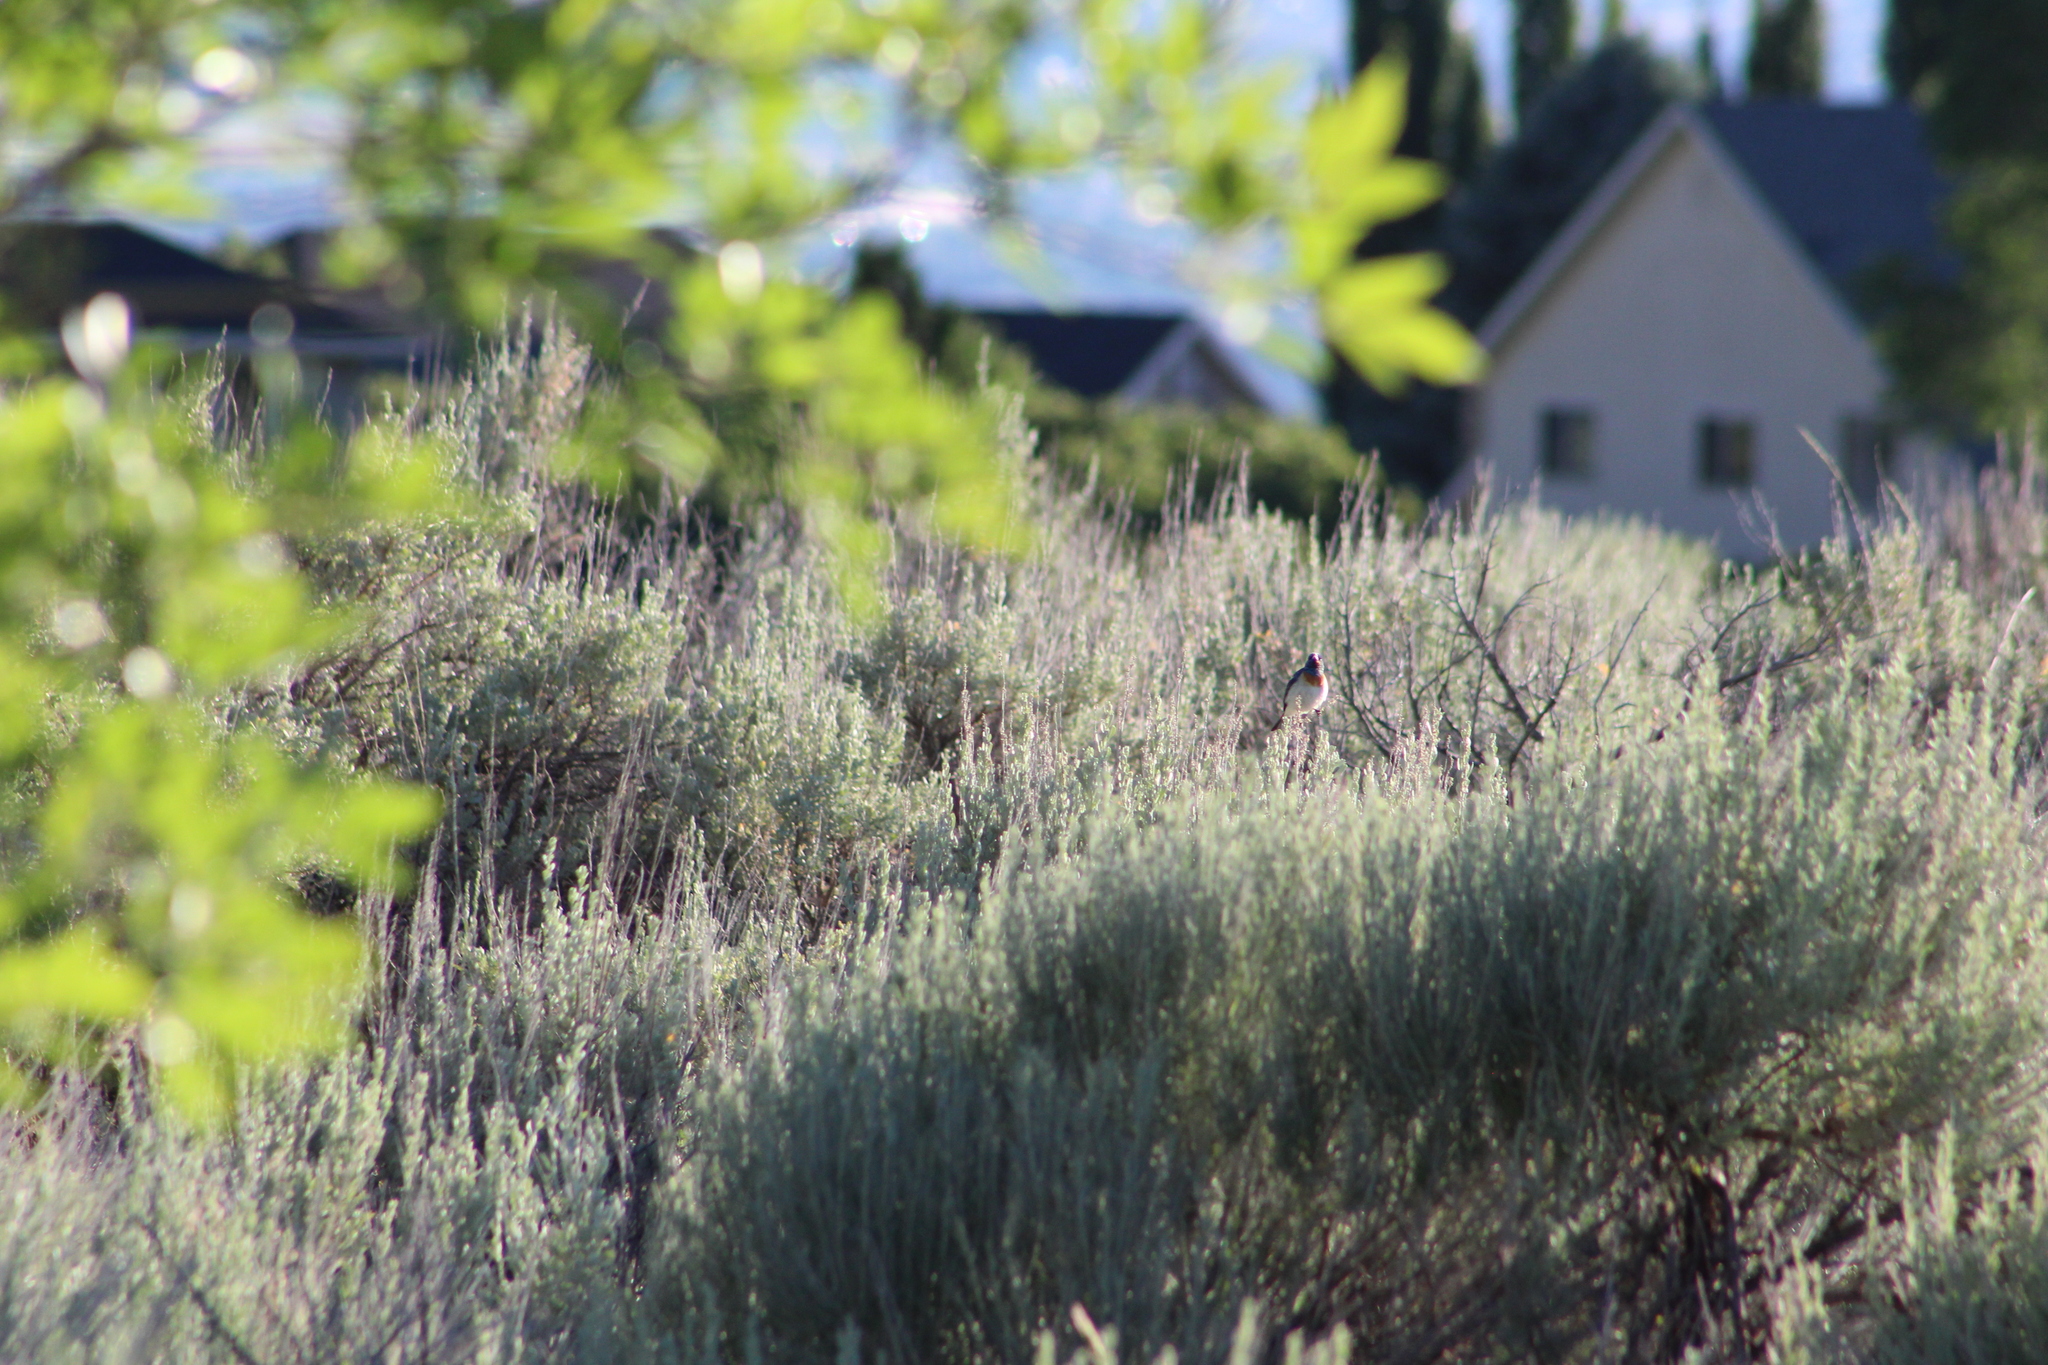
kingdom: Animalia
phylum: Chordata
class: Aves
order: Passeriformes
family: Cardinalidae
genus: Passerina
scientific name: Passerina amoena
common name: Lazuli bunting
